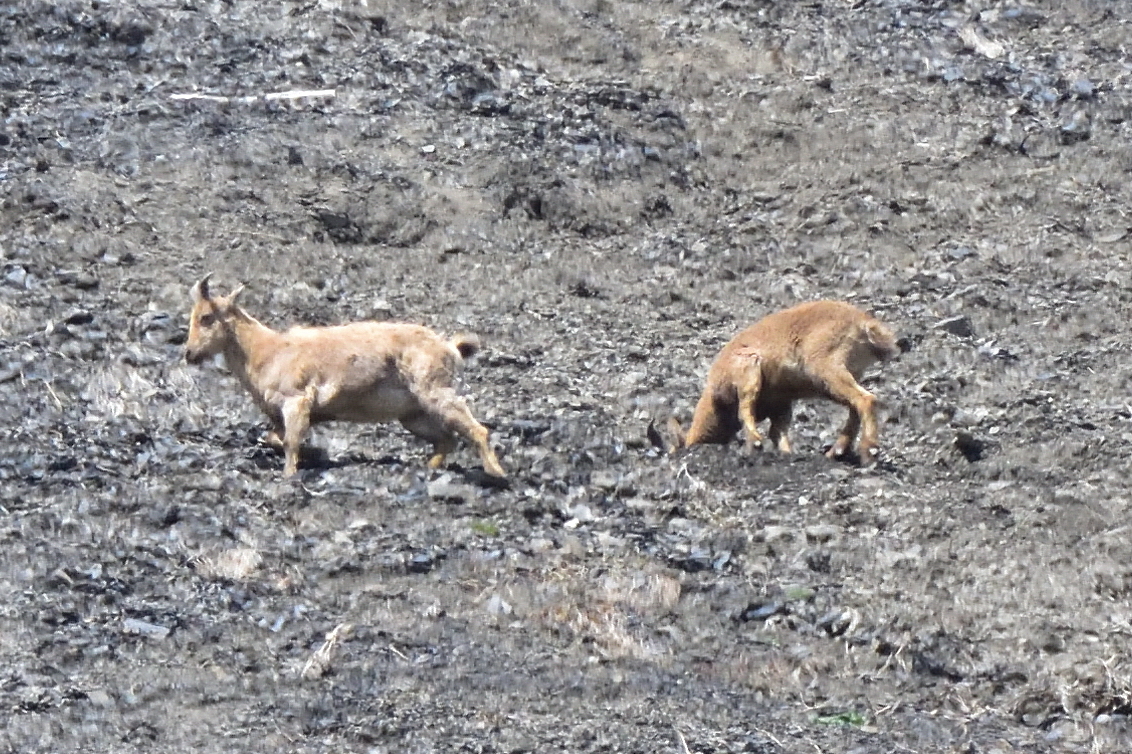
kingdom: Animalia
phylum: Chordata
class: Mammalia
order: Artiodactyla
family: Bovidae
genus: Capra
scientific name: Capra caucasica
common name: Tur
